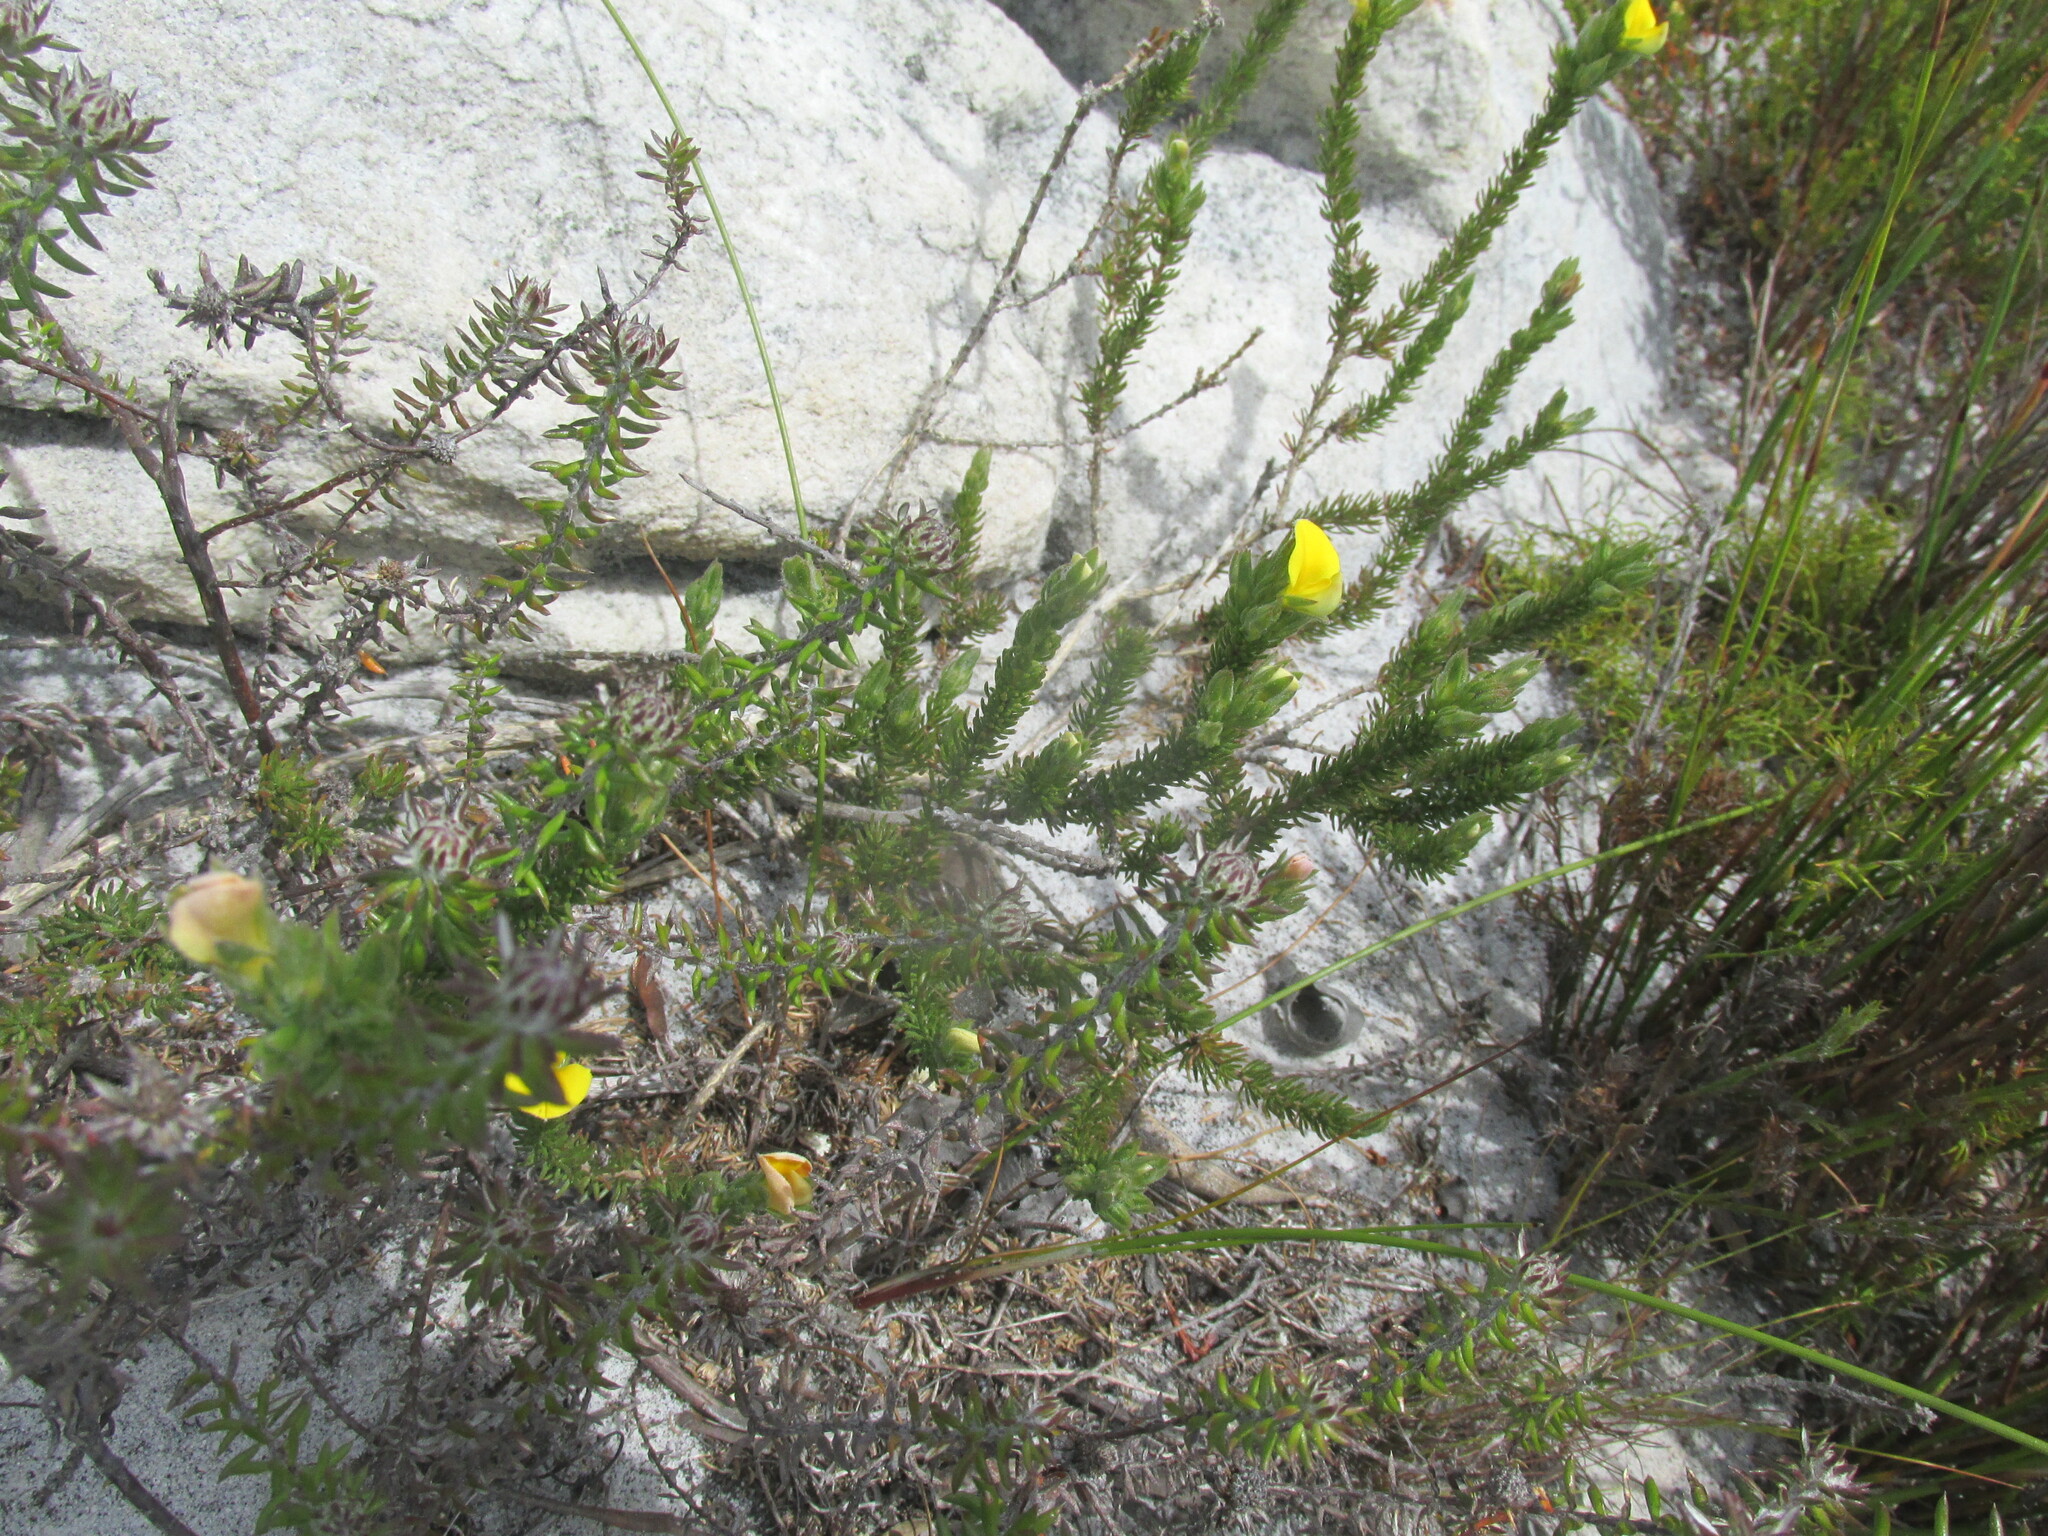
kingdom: Plantae
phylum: Tracheophyta
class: Magnoliopsida
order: Fabales
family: Fabaceae
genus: Aspalathus
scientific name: Aspalathus ciliaris
